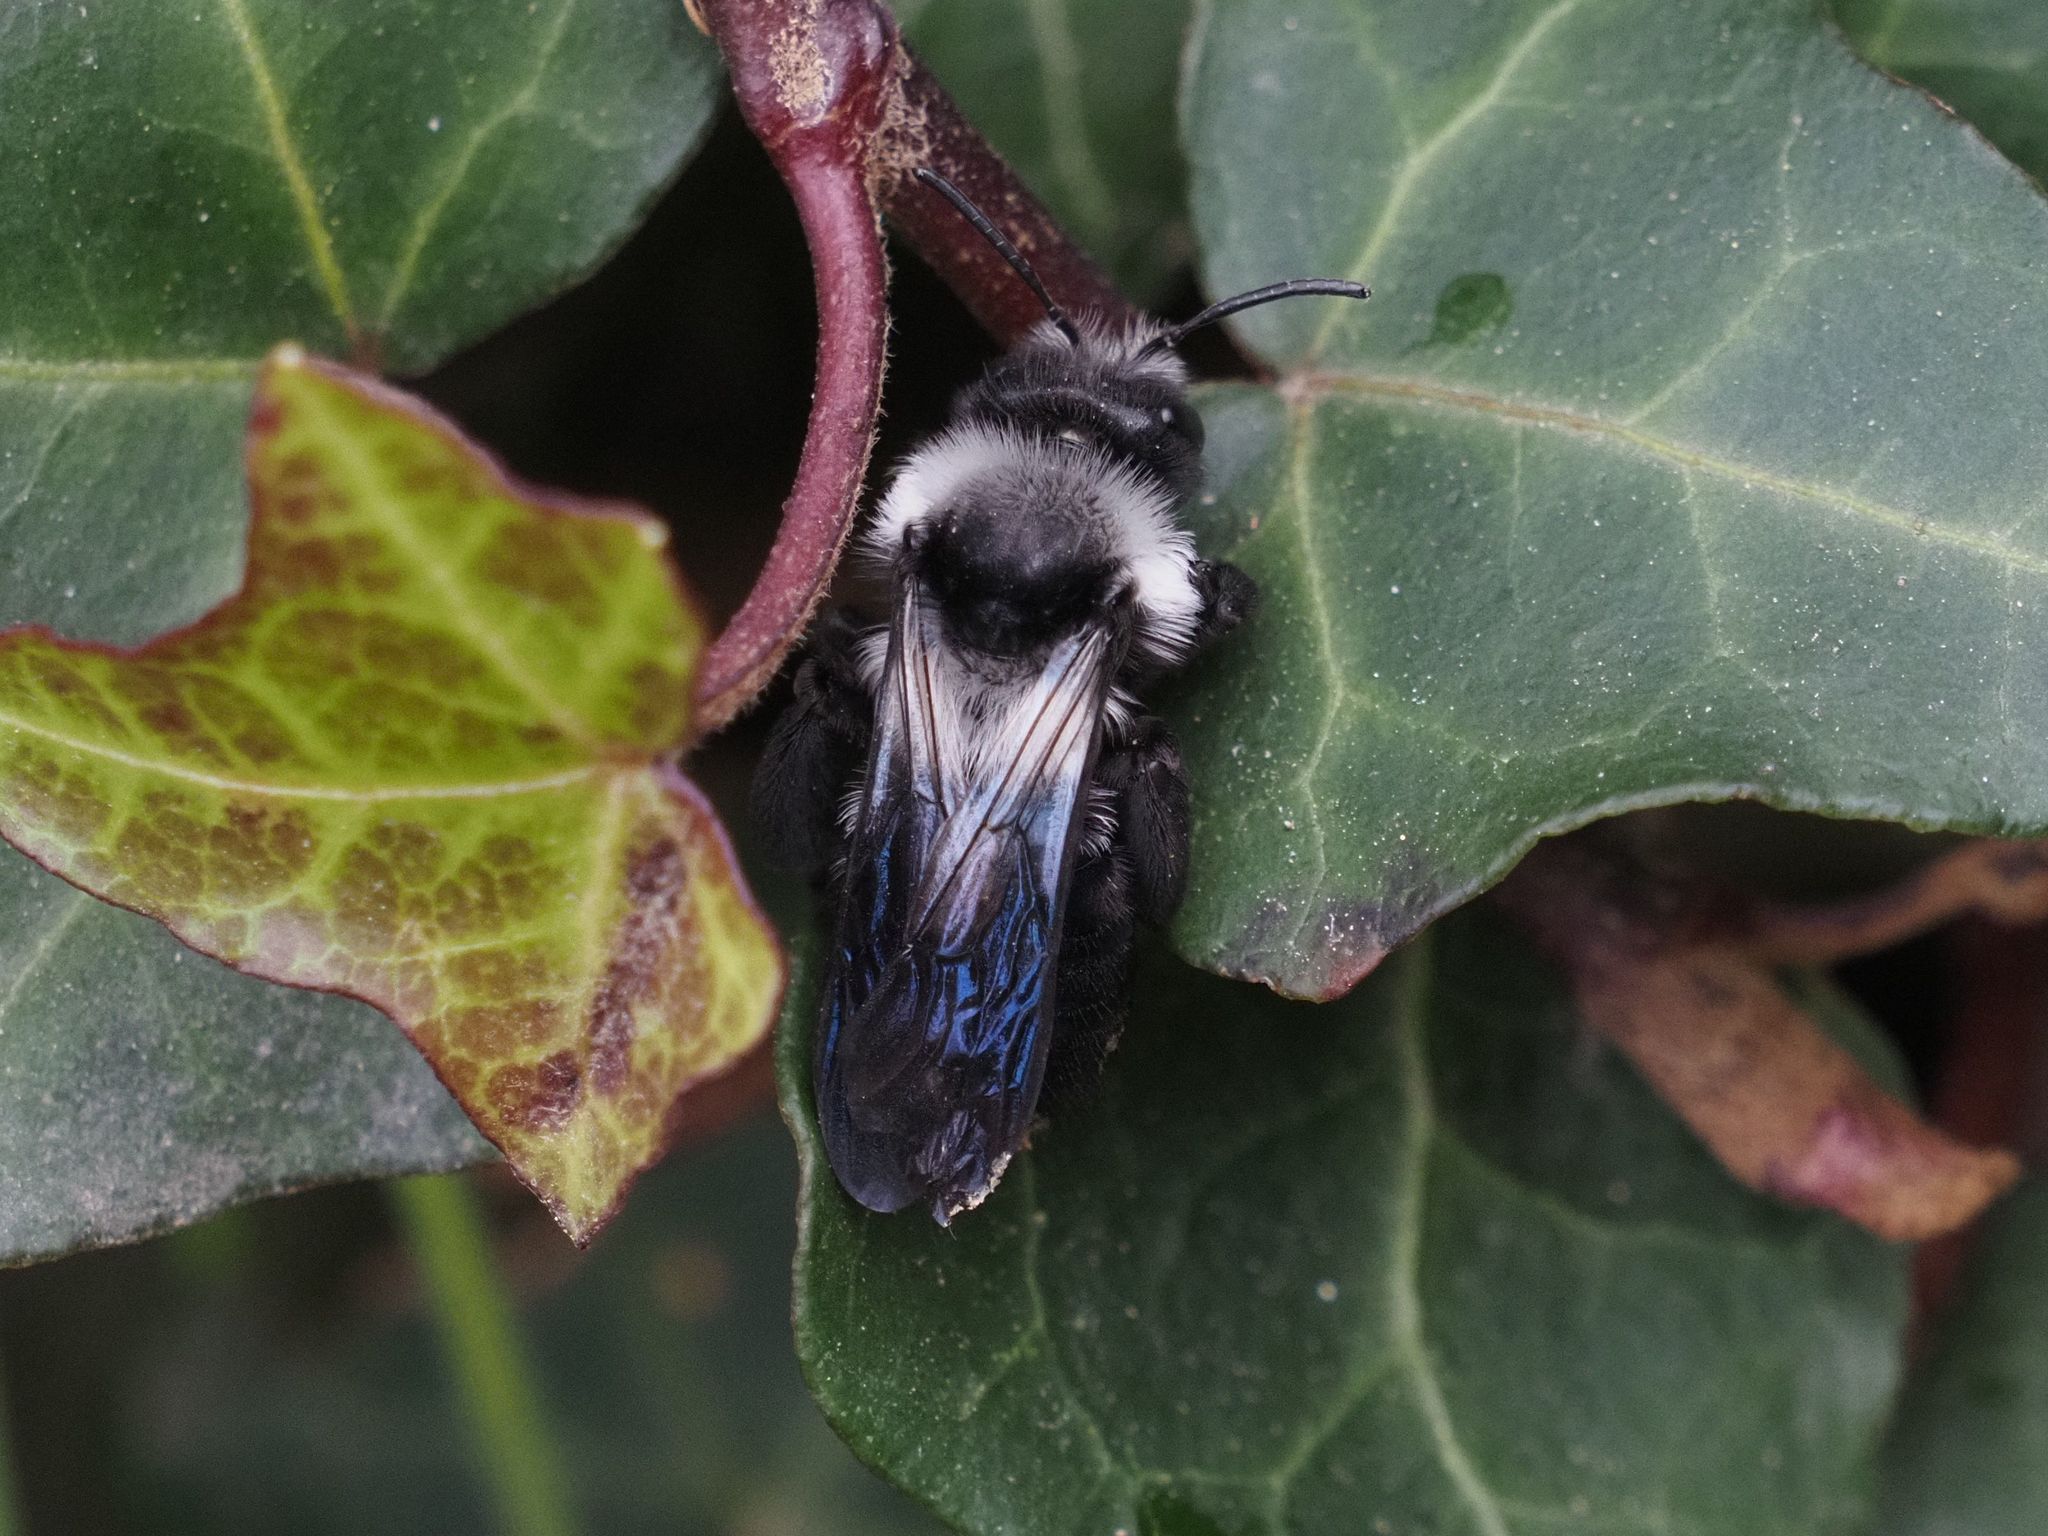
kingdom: Animalia
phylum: Arthropoda
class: Insecta
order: Hymenoptera
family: Andrenidae
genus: Andrena
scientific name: Andrena cineraria
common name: Ashy mining bee
